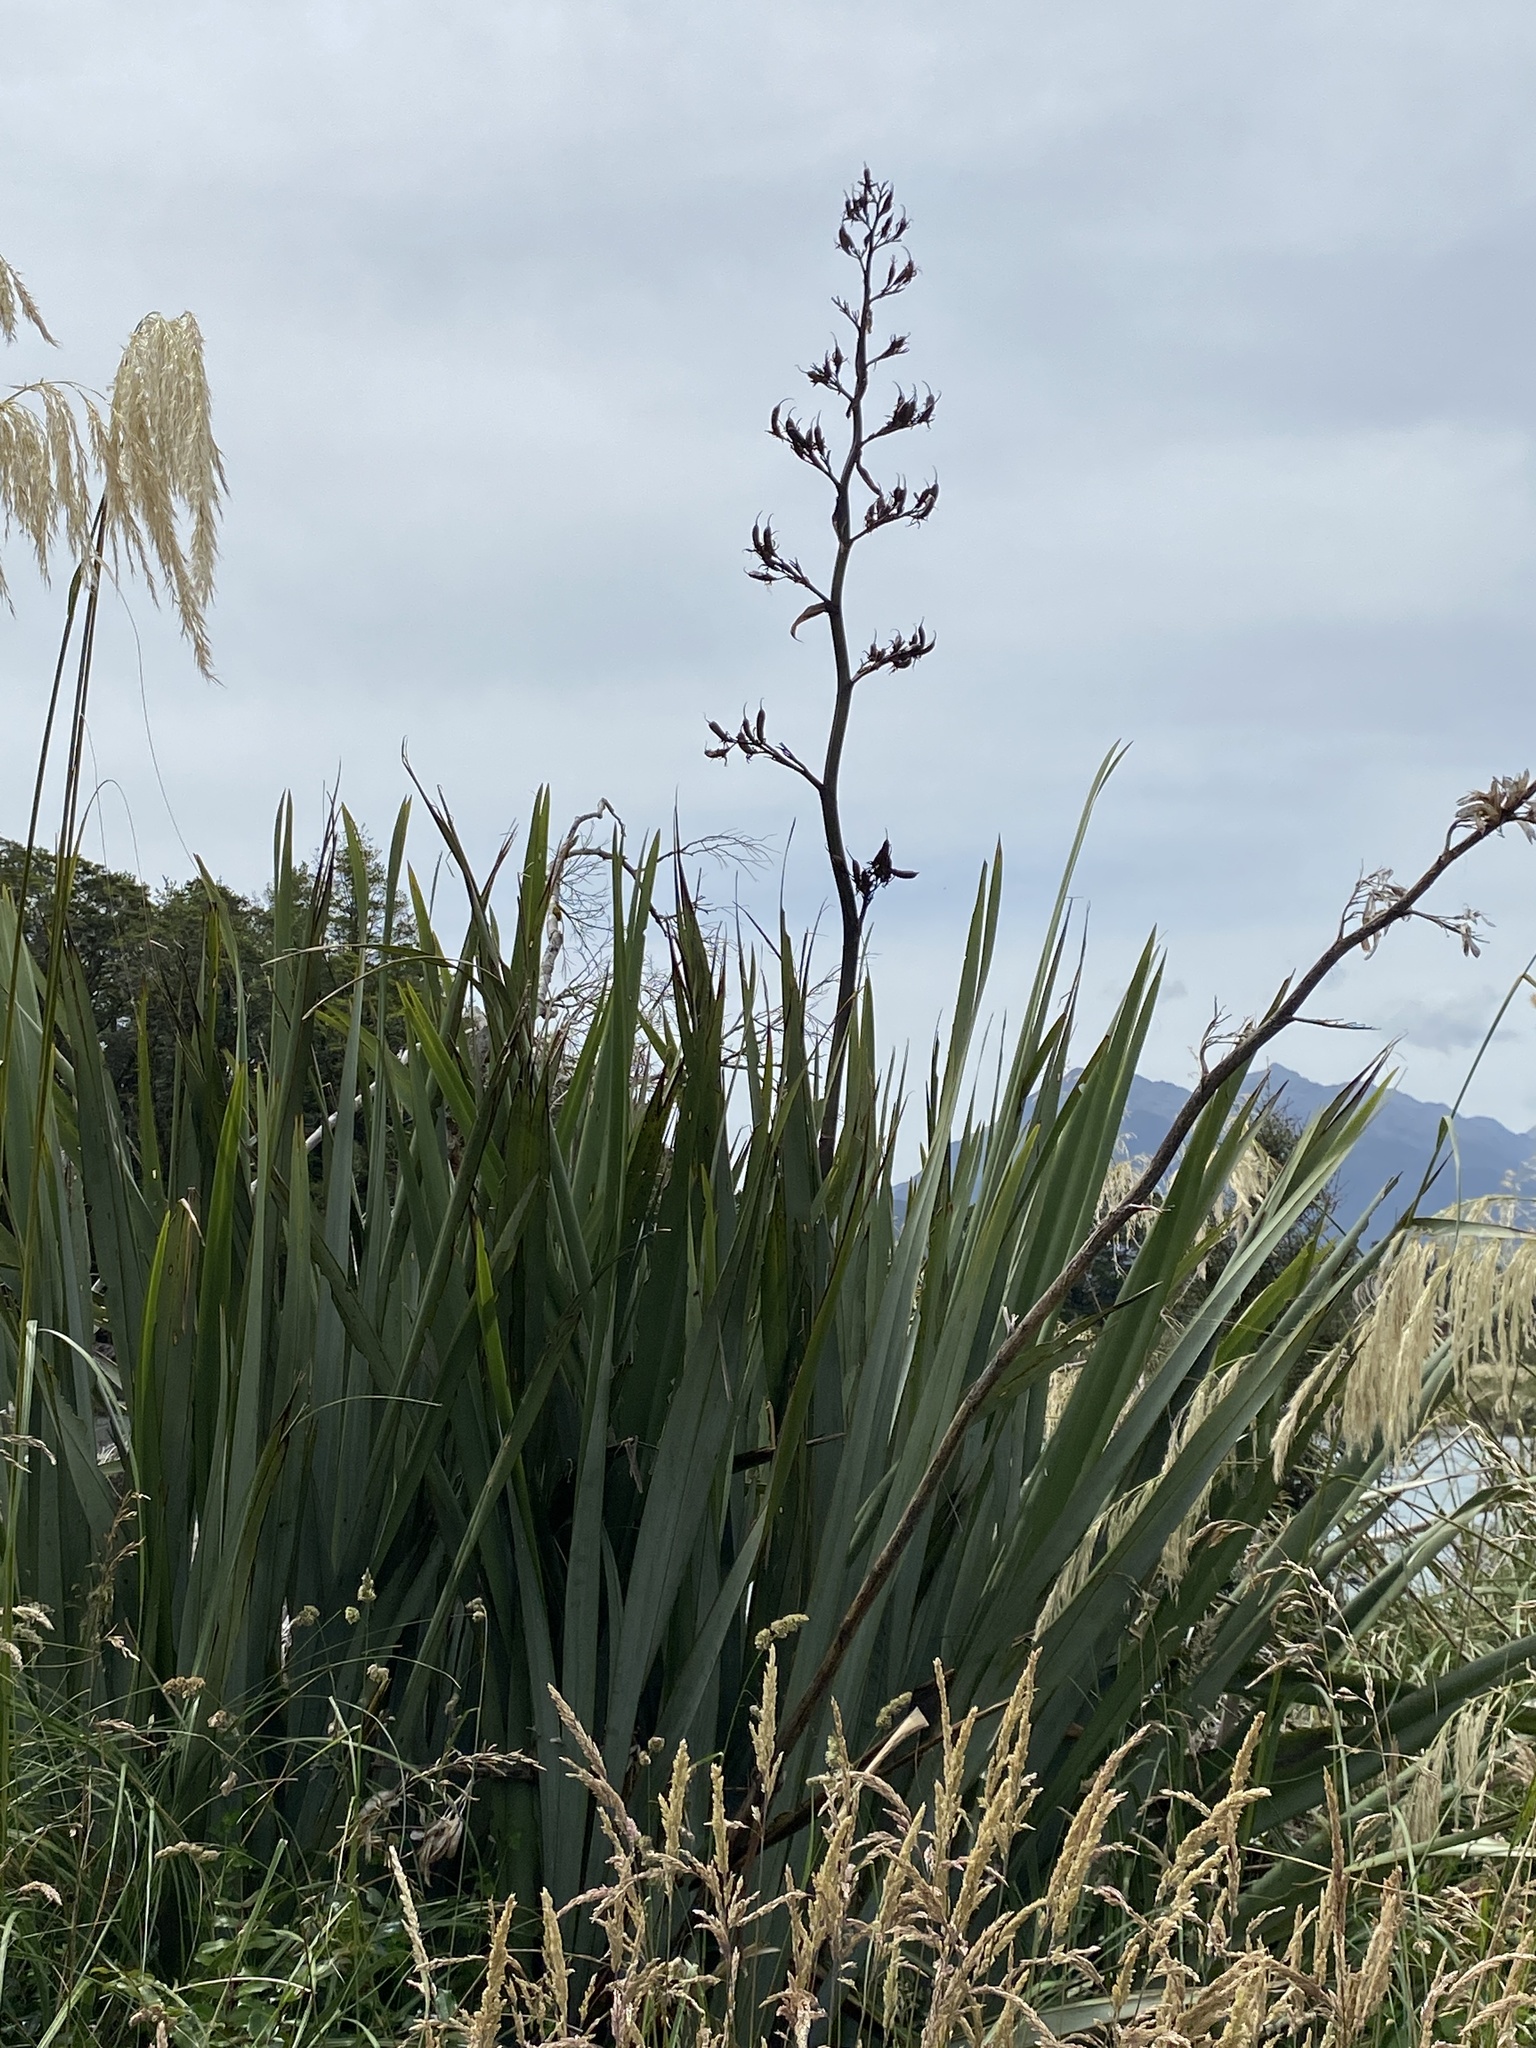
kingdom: Plantae
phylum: Tracheophyta
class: Liliopsida
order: Asparagales
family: Asphodelaceae
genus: Phormium
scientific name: Phormium tenax
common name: New zealand flax
